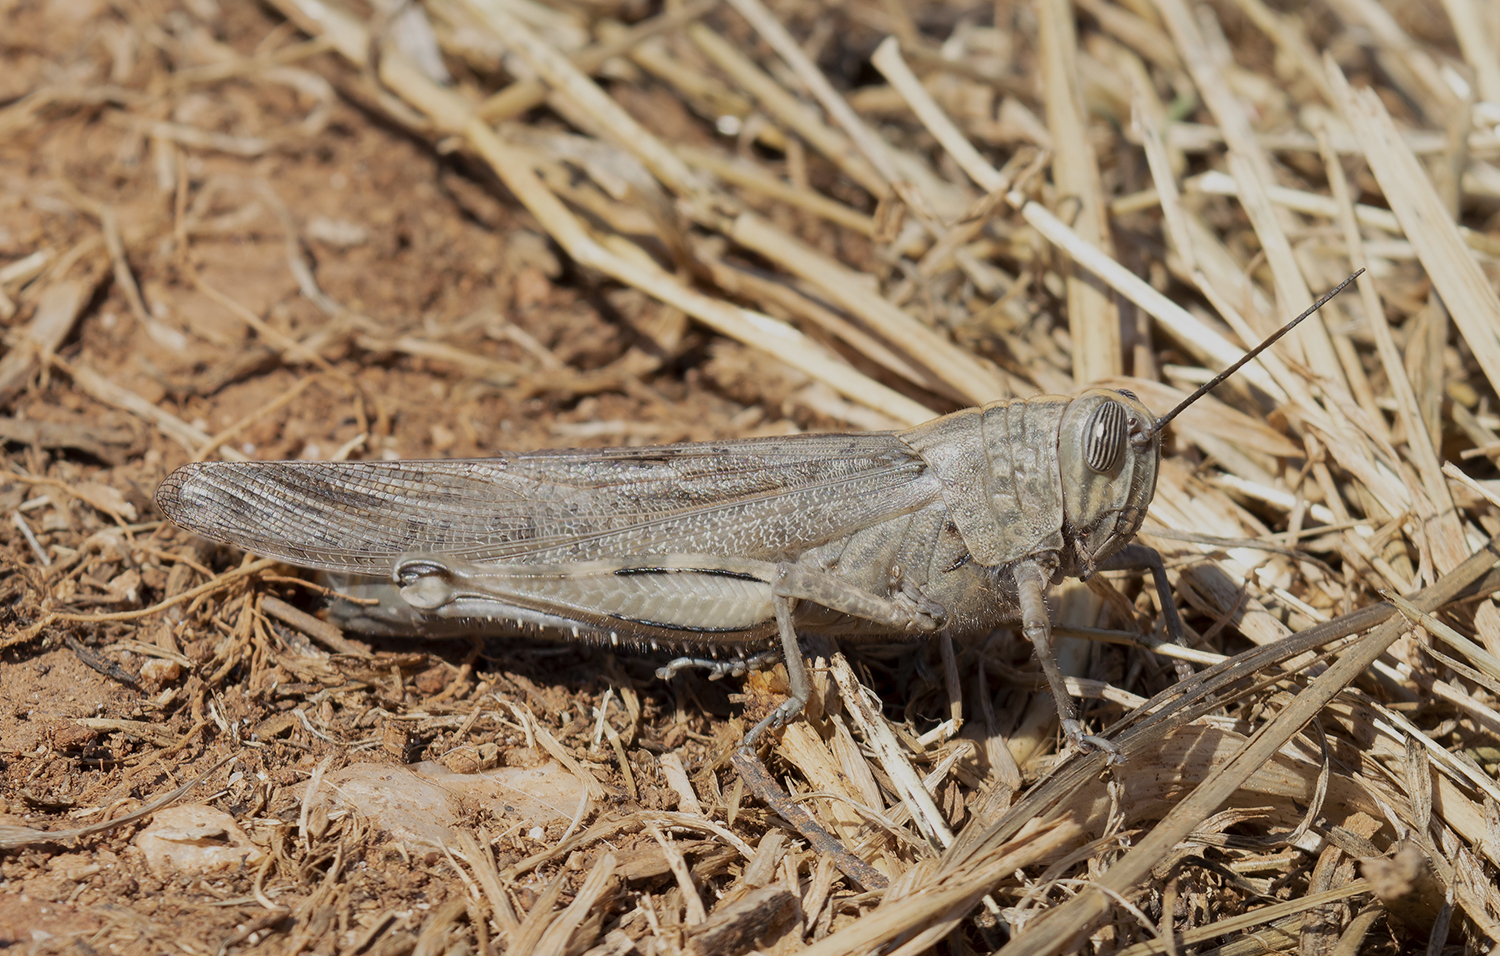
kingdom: Animalia
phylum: Arthropoda
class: Insecta
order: Orthoptera
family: Acrididae
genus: Anacridium
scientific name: Anacridium aegyptium
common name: Egyptian grasshopper
